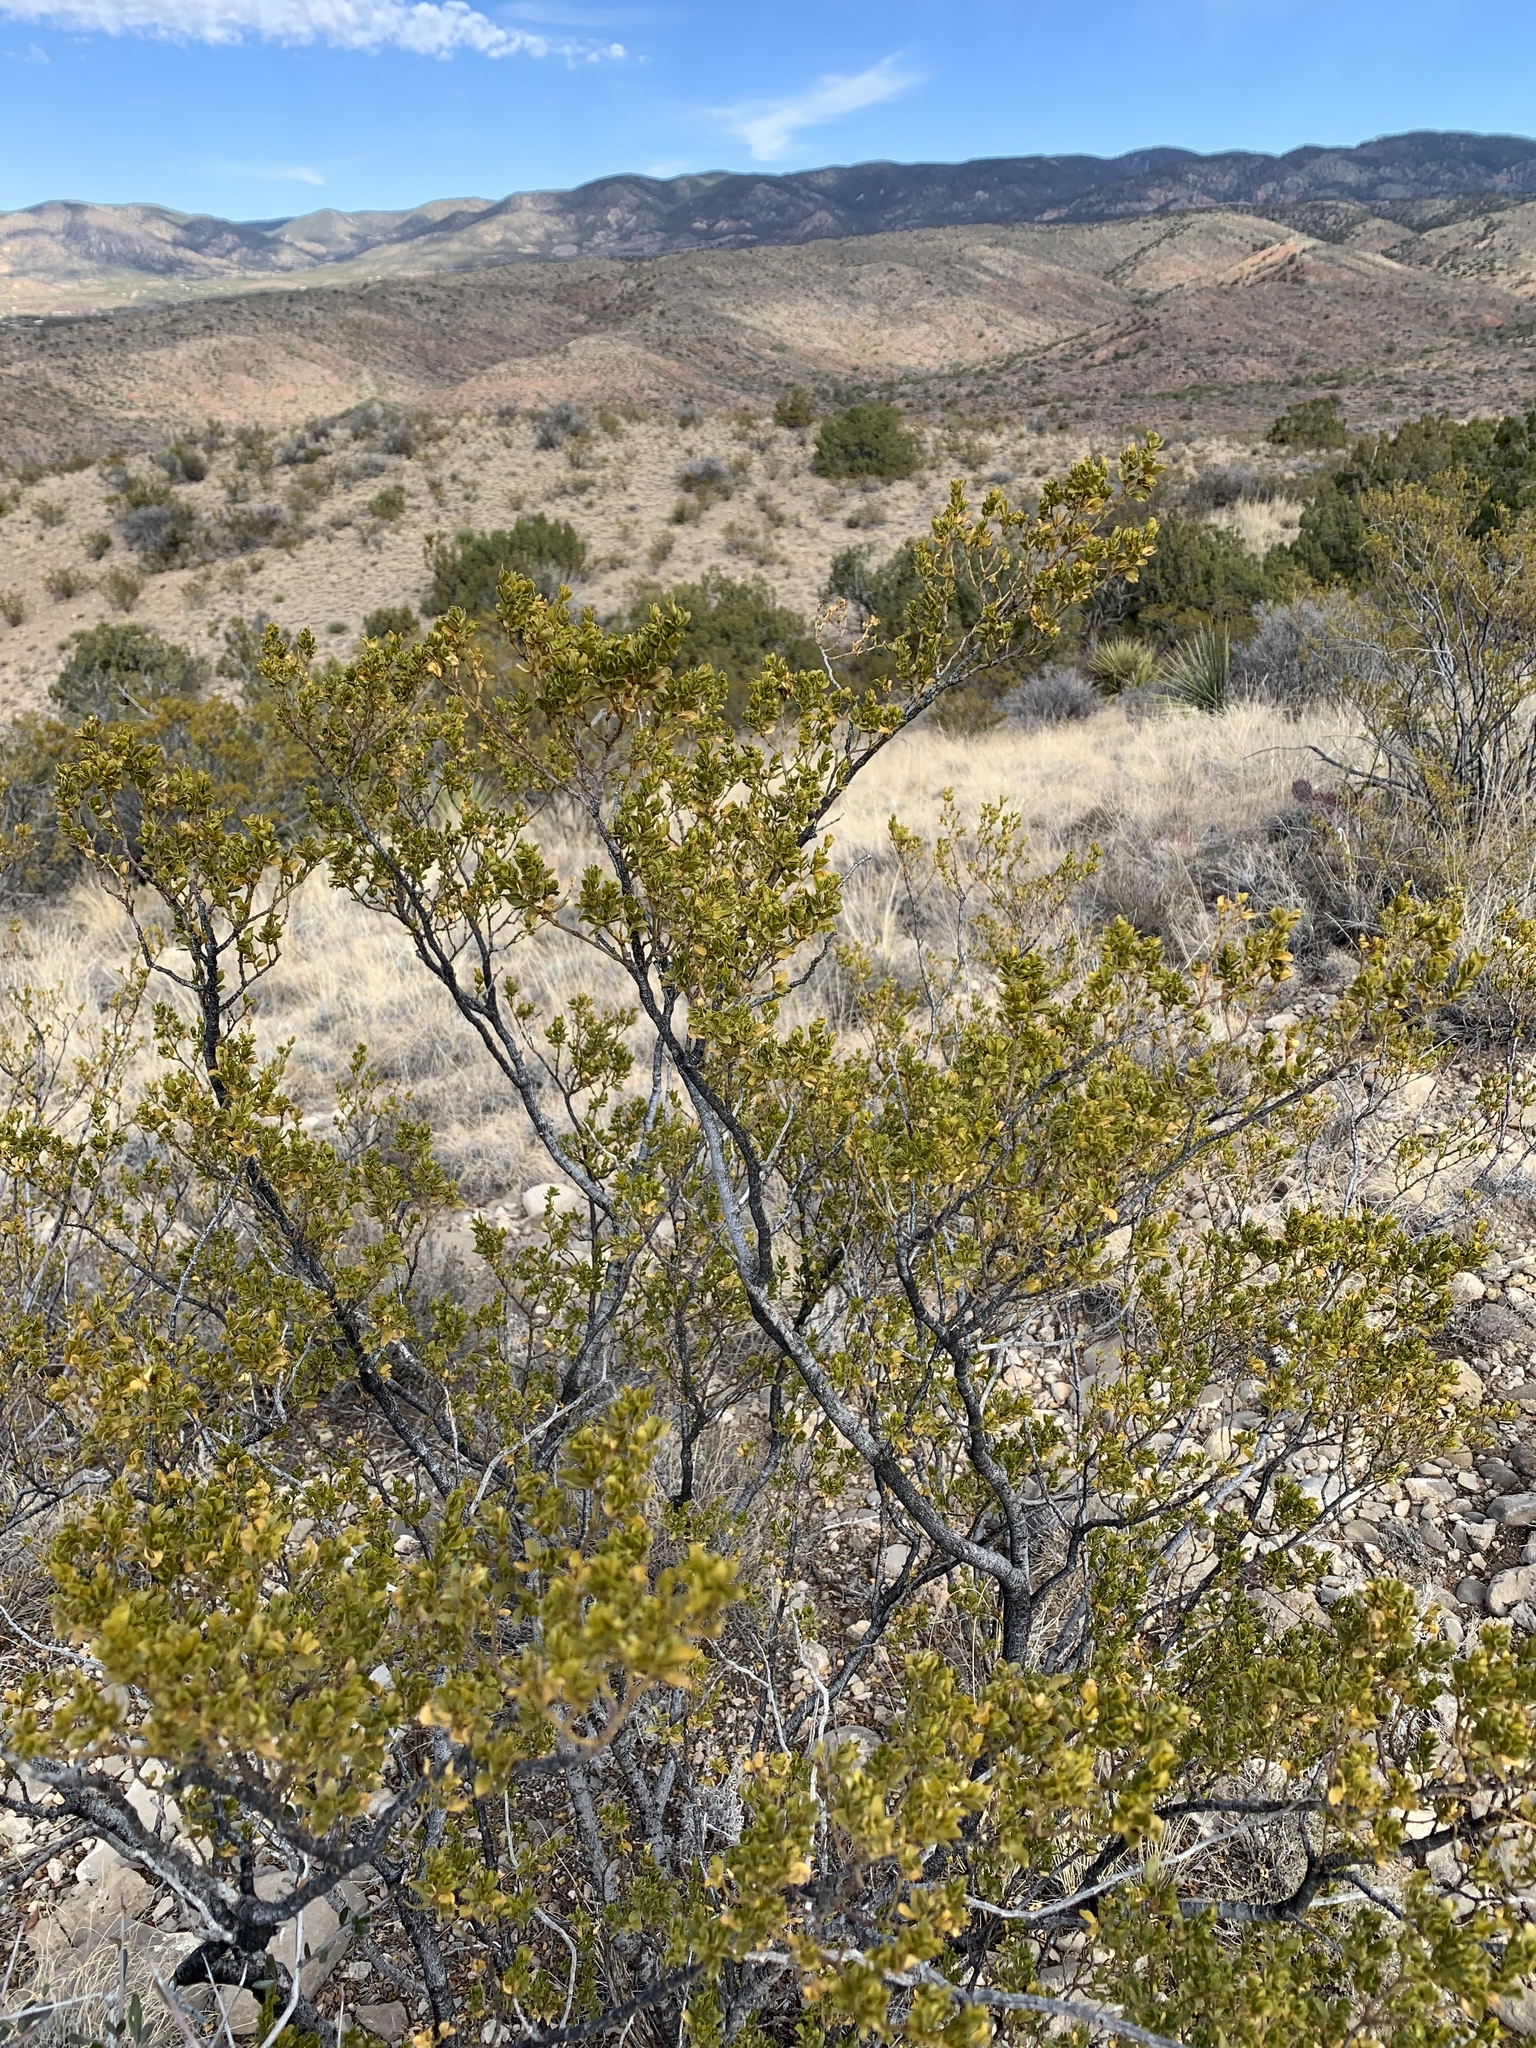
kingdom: Plantae
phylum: Tracheophyta
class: Magnoliopsida
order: Zygophyllales
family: Zygophyllaceae
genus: Larrea
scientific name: Larrea tridentata
